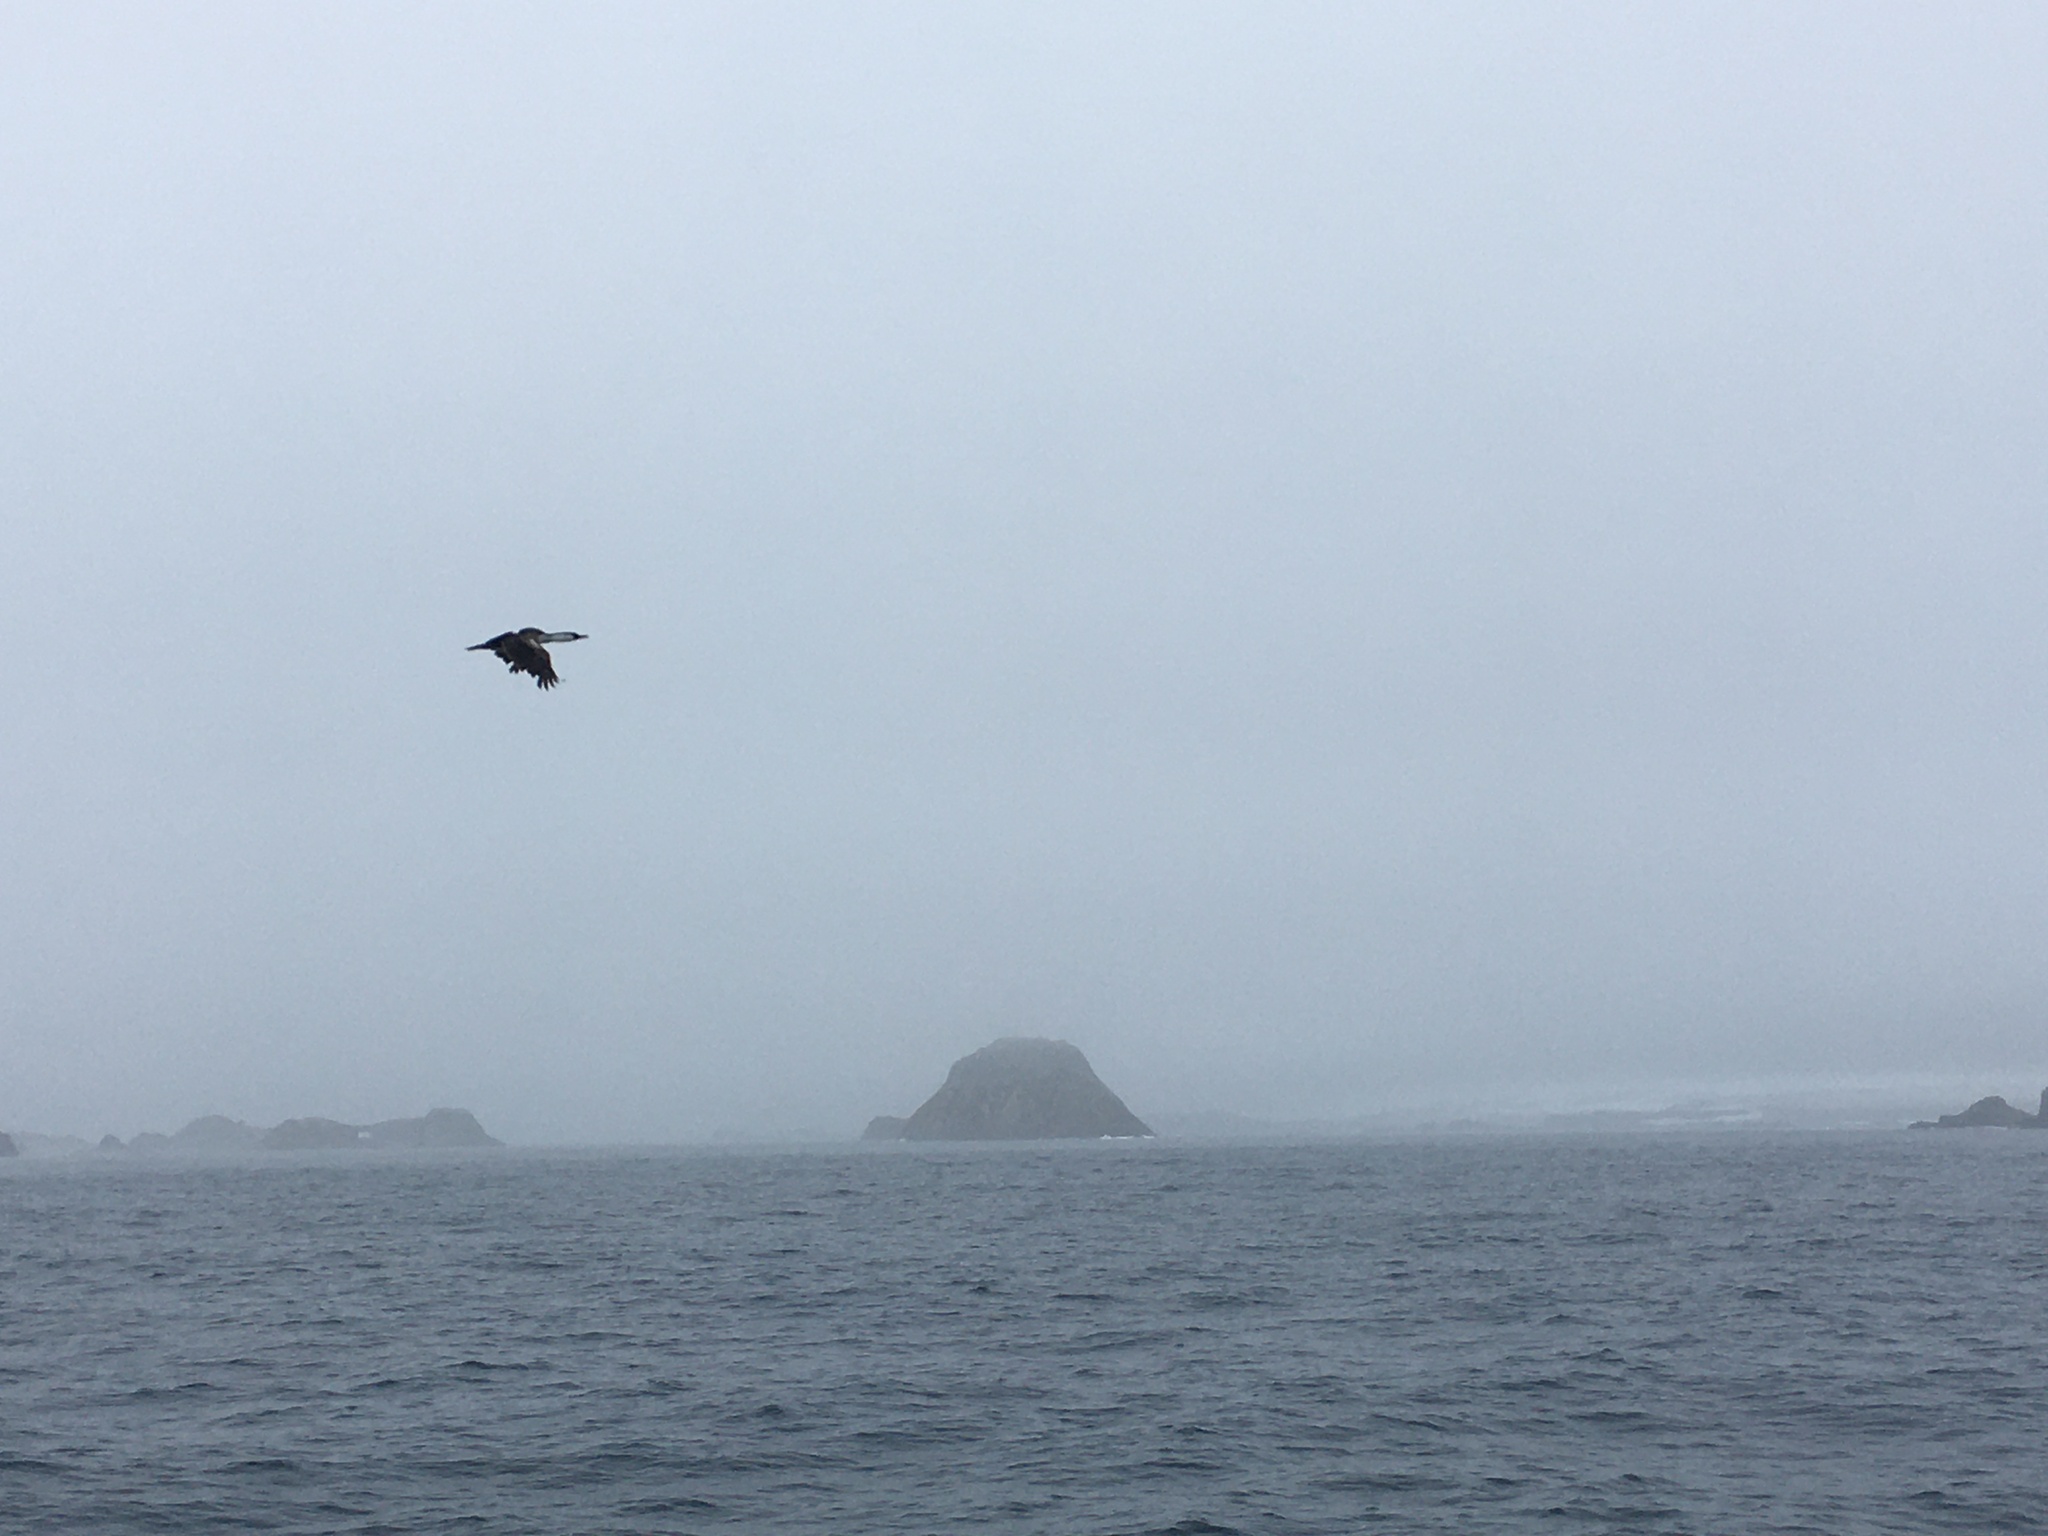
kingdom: Animalia
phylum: Chordata
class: Aves
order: Suliformes
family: Phalacrocoracidae
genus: Leucocarbo
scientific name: Leucocarbo atriceps
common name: Imperial shag
